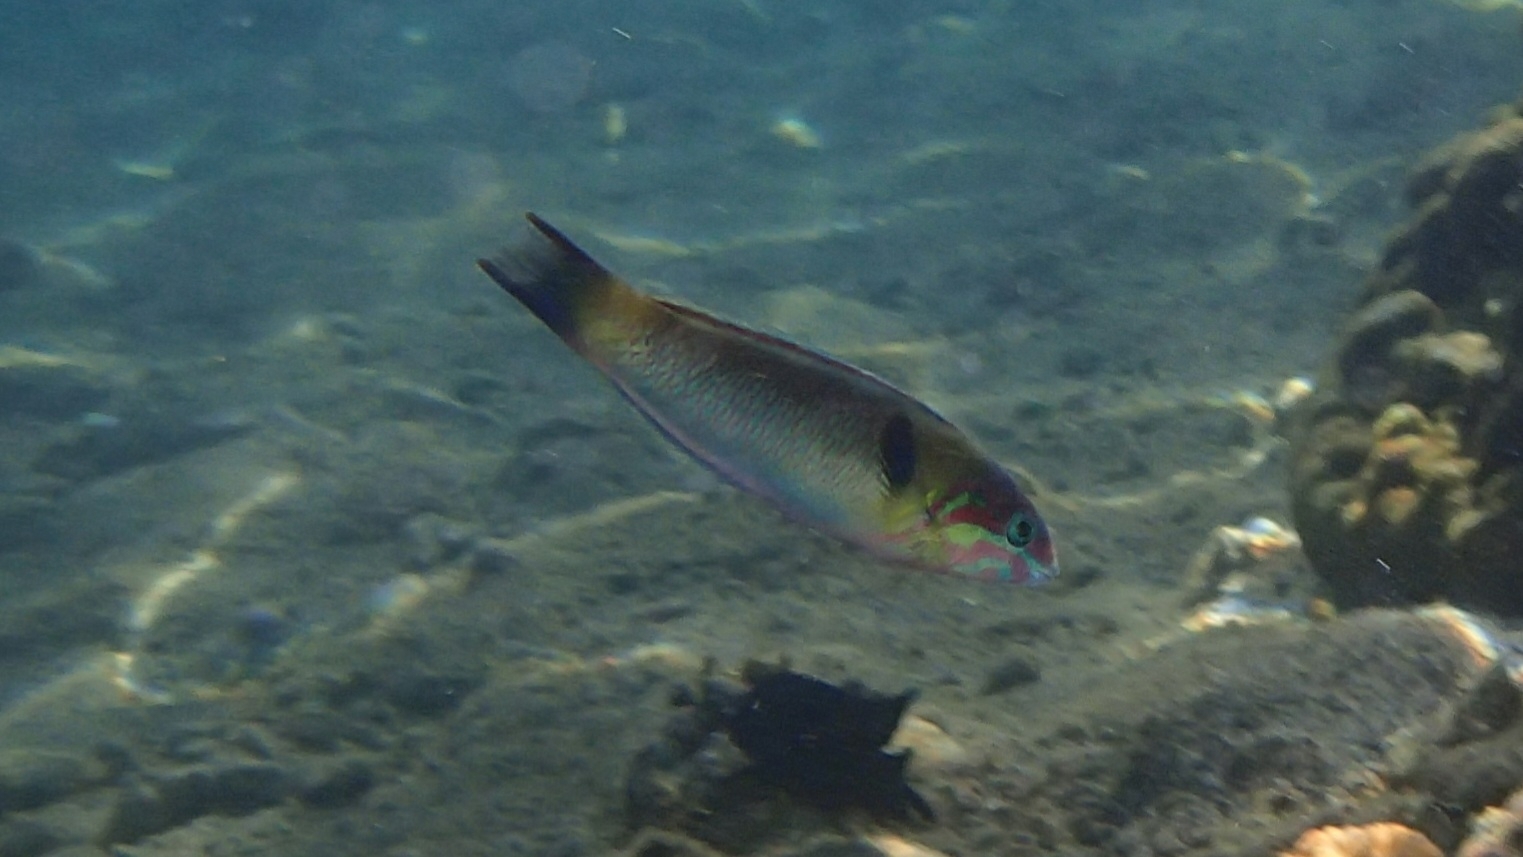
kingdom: Animalia
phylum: Chordata
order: Perciformes
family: Labridae
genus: Thalassoma
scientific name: Thalassoma genivittatum
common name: Red-cheek wrasse
